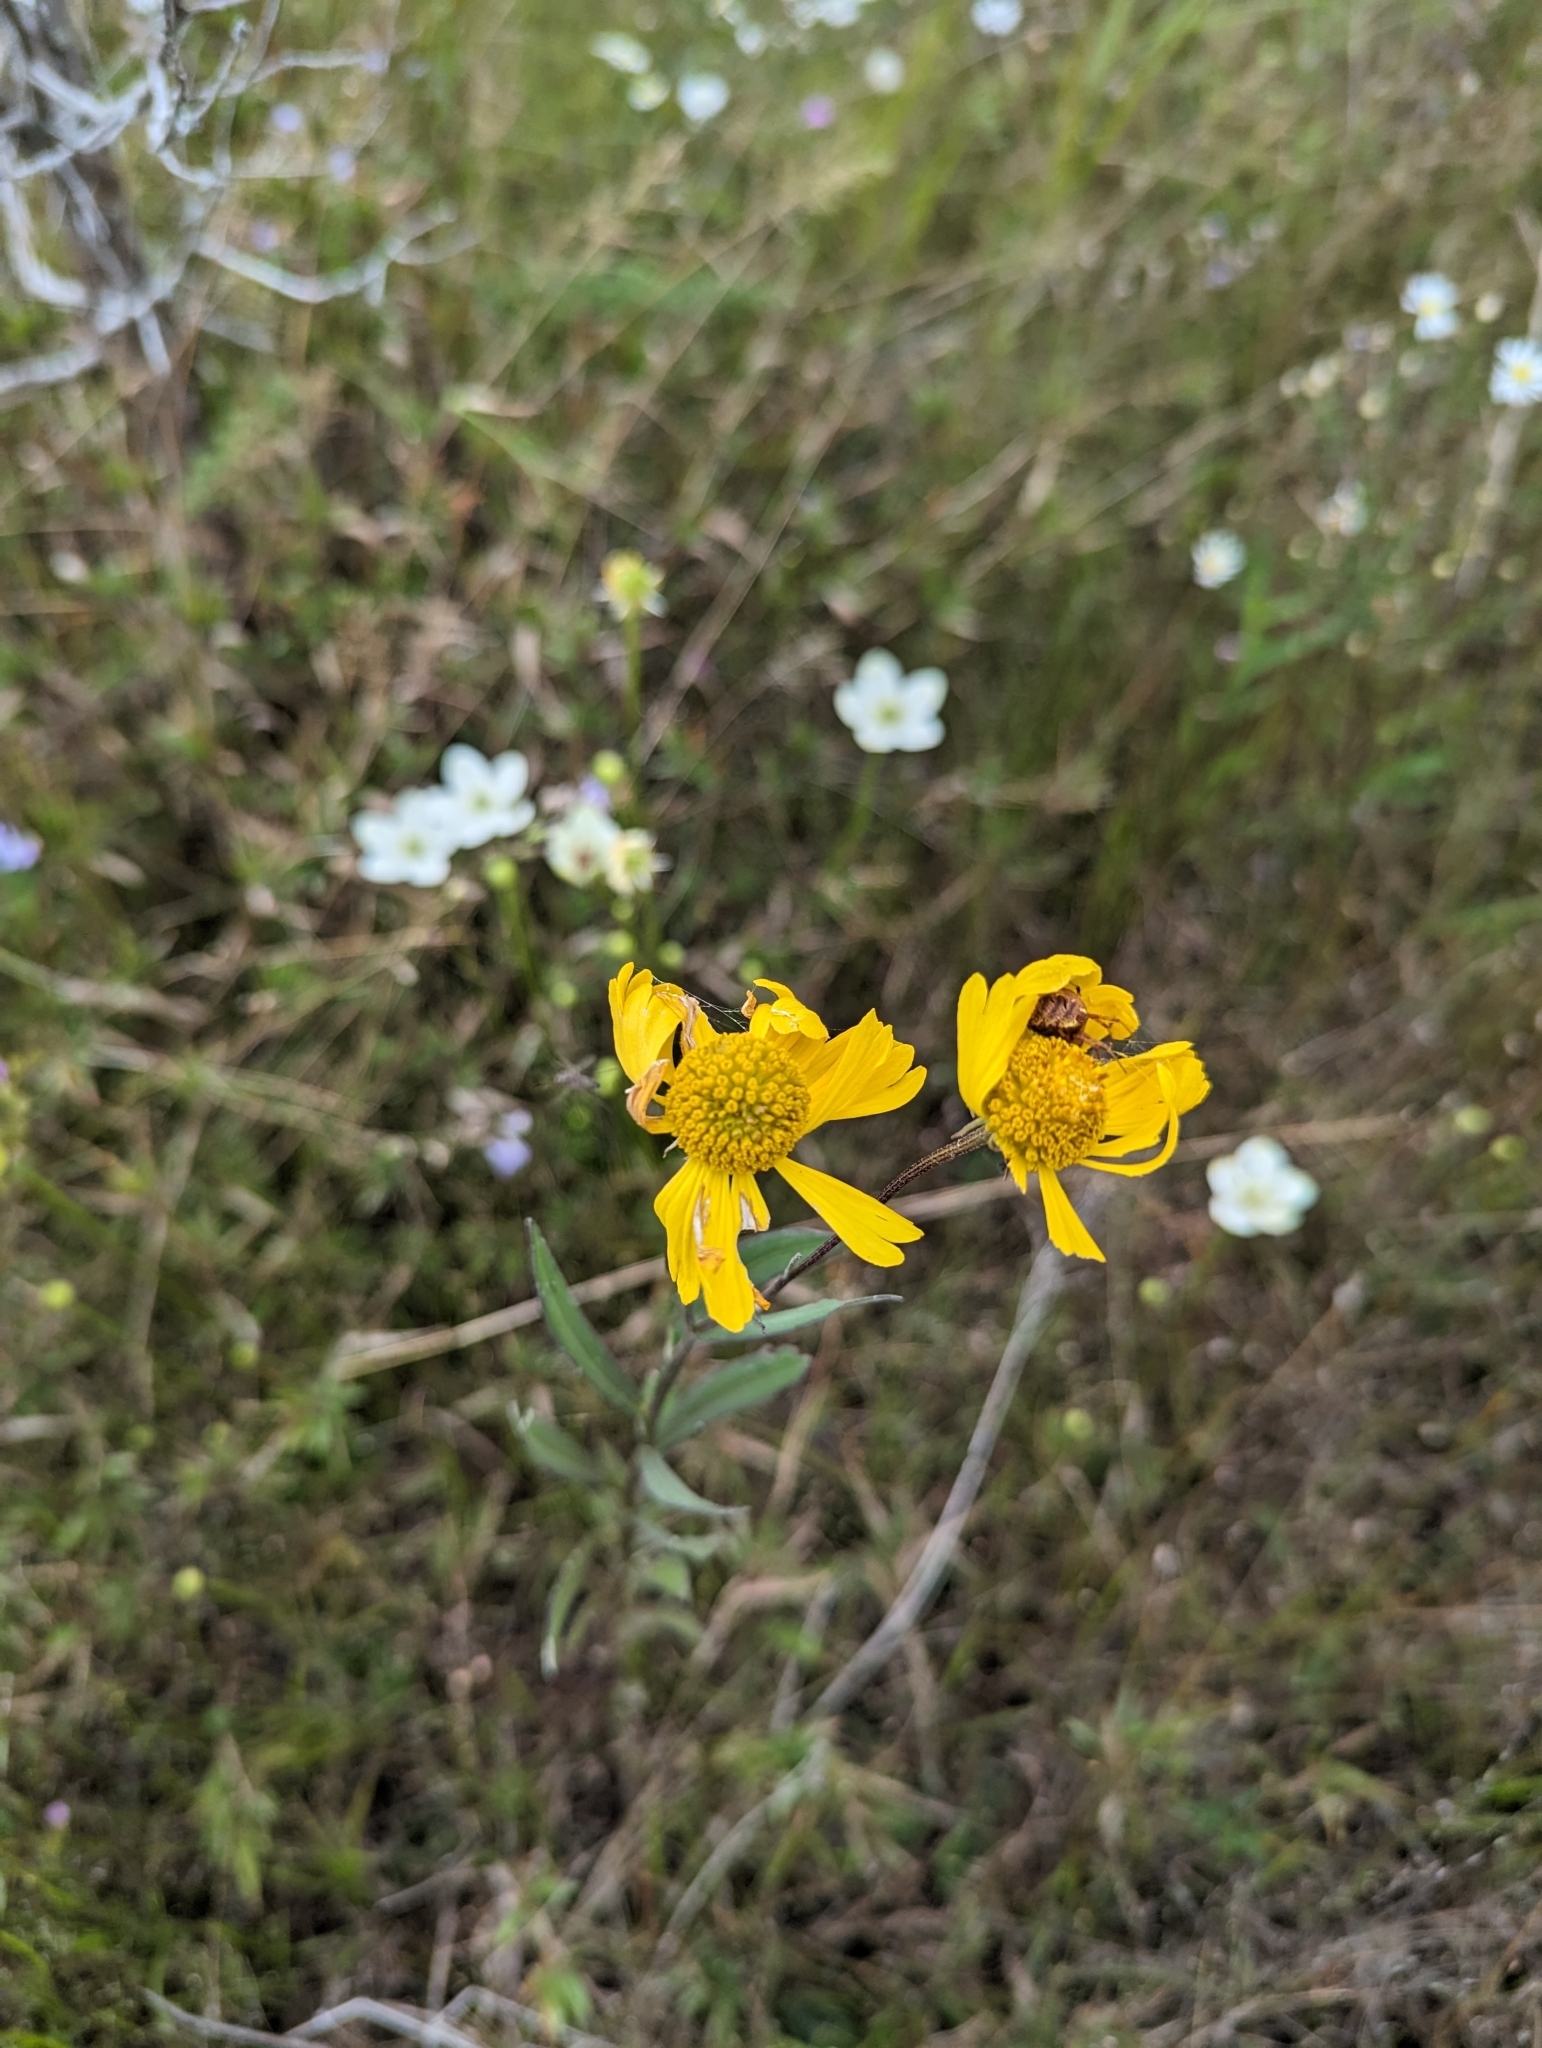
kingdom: Plantae
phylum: Tracheophyta
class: Magnoliopsida
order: Asterales
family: Asteraceae
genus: Helenium
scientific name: Helenium autumnale
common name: Sneezeweed
